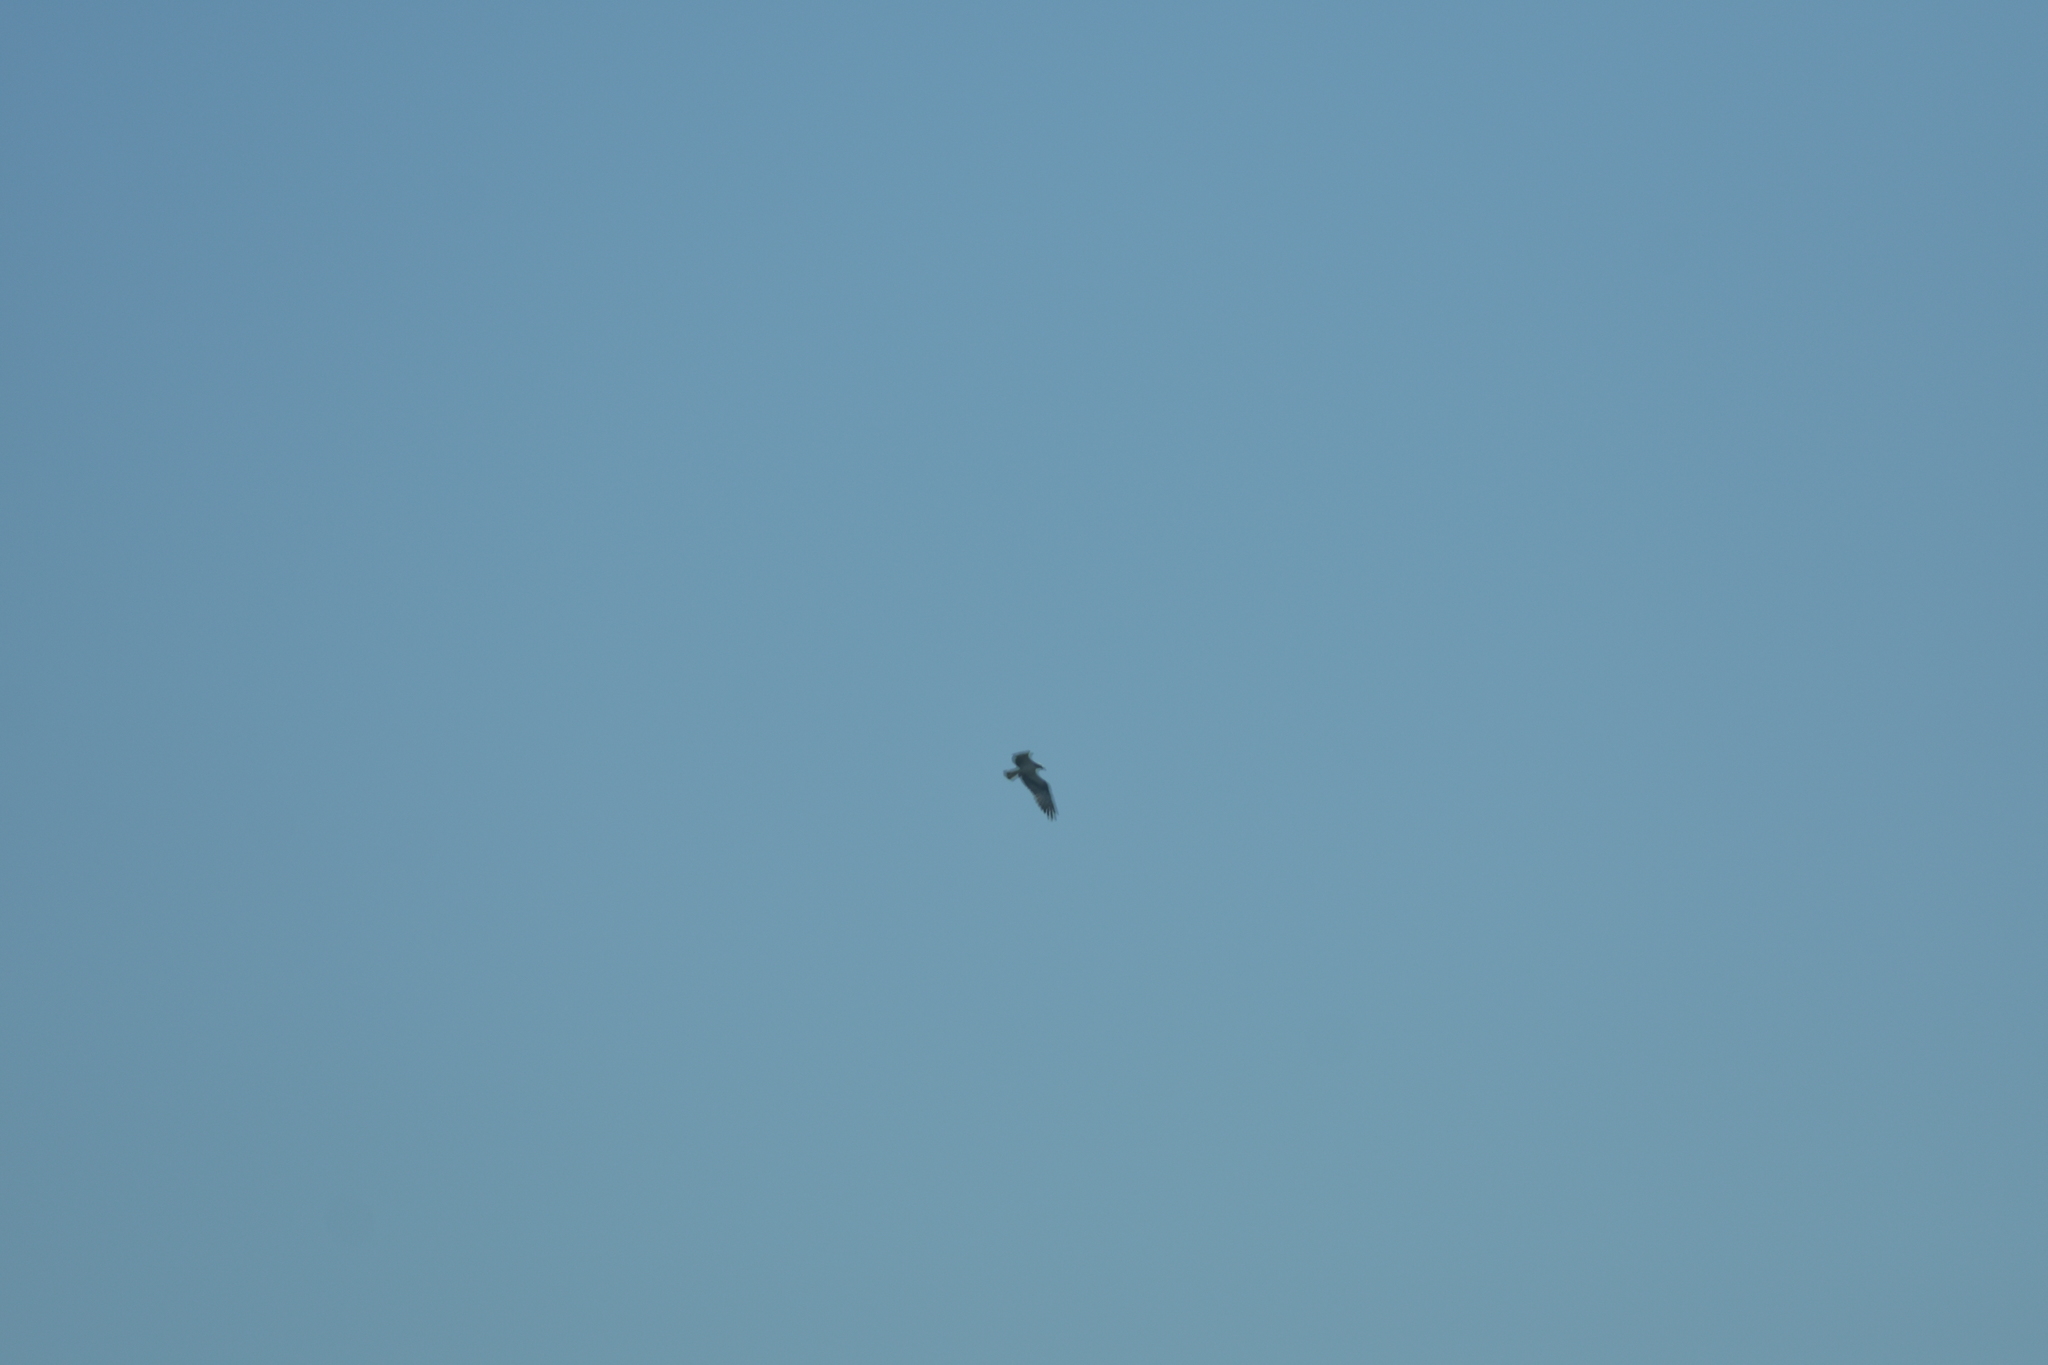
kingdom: Animalia
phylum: Chordata
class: Aves
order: Accipitriformes
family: Pandionidae
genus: Pandion
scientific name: Pandion haliaetus
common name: Osprey
